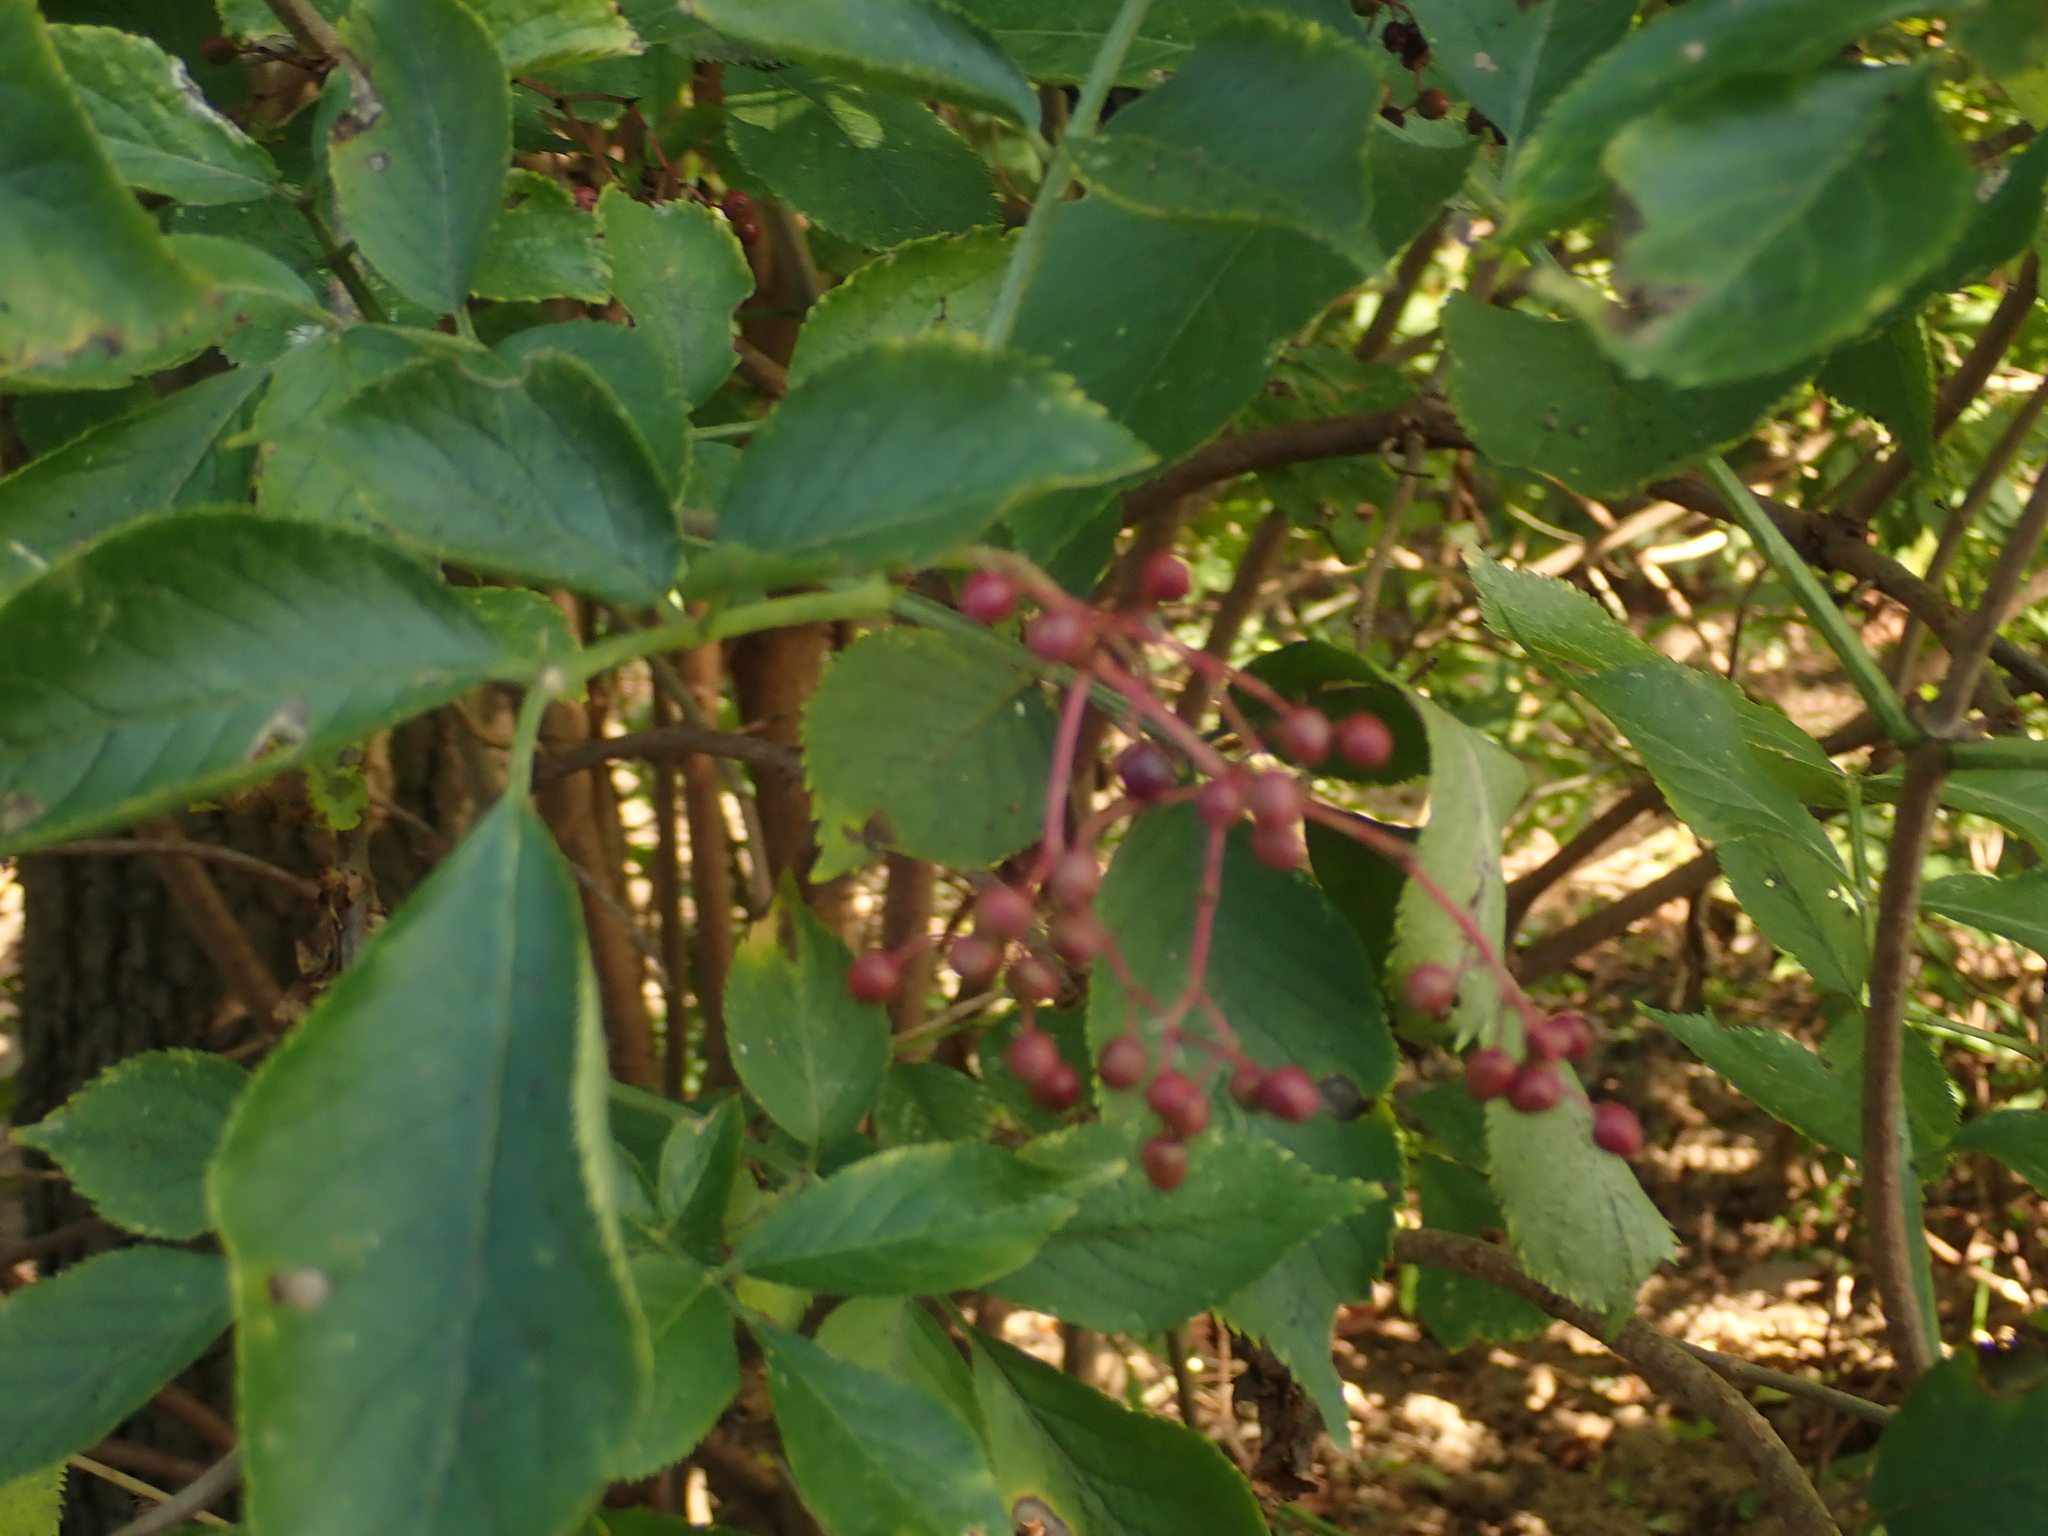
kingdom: Plantae
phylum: Tracheophyta
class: Magnoliopsida
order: Dipsacales
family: Viburnaceae
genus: Sambucus
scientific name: Sambucus nigra
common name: Elder
